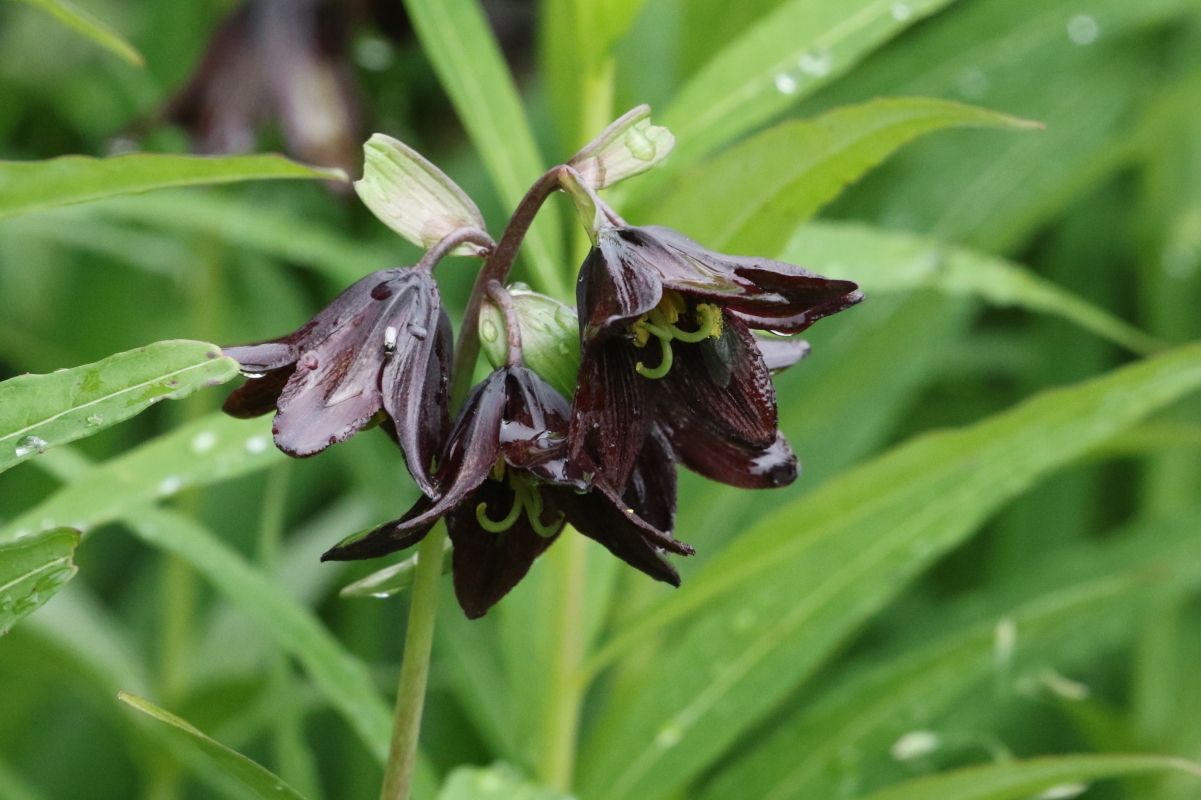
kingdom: Plantae
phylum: Tracheophyta
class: Liliopsida
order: Liliales
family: Liliaceae
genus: Fritillaria
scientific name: Fritillaria camschatcensis
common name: Kamchatka fritillary
